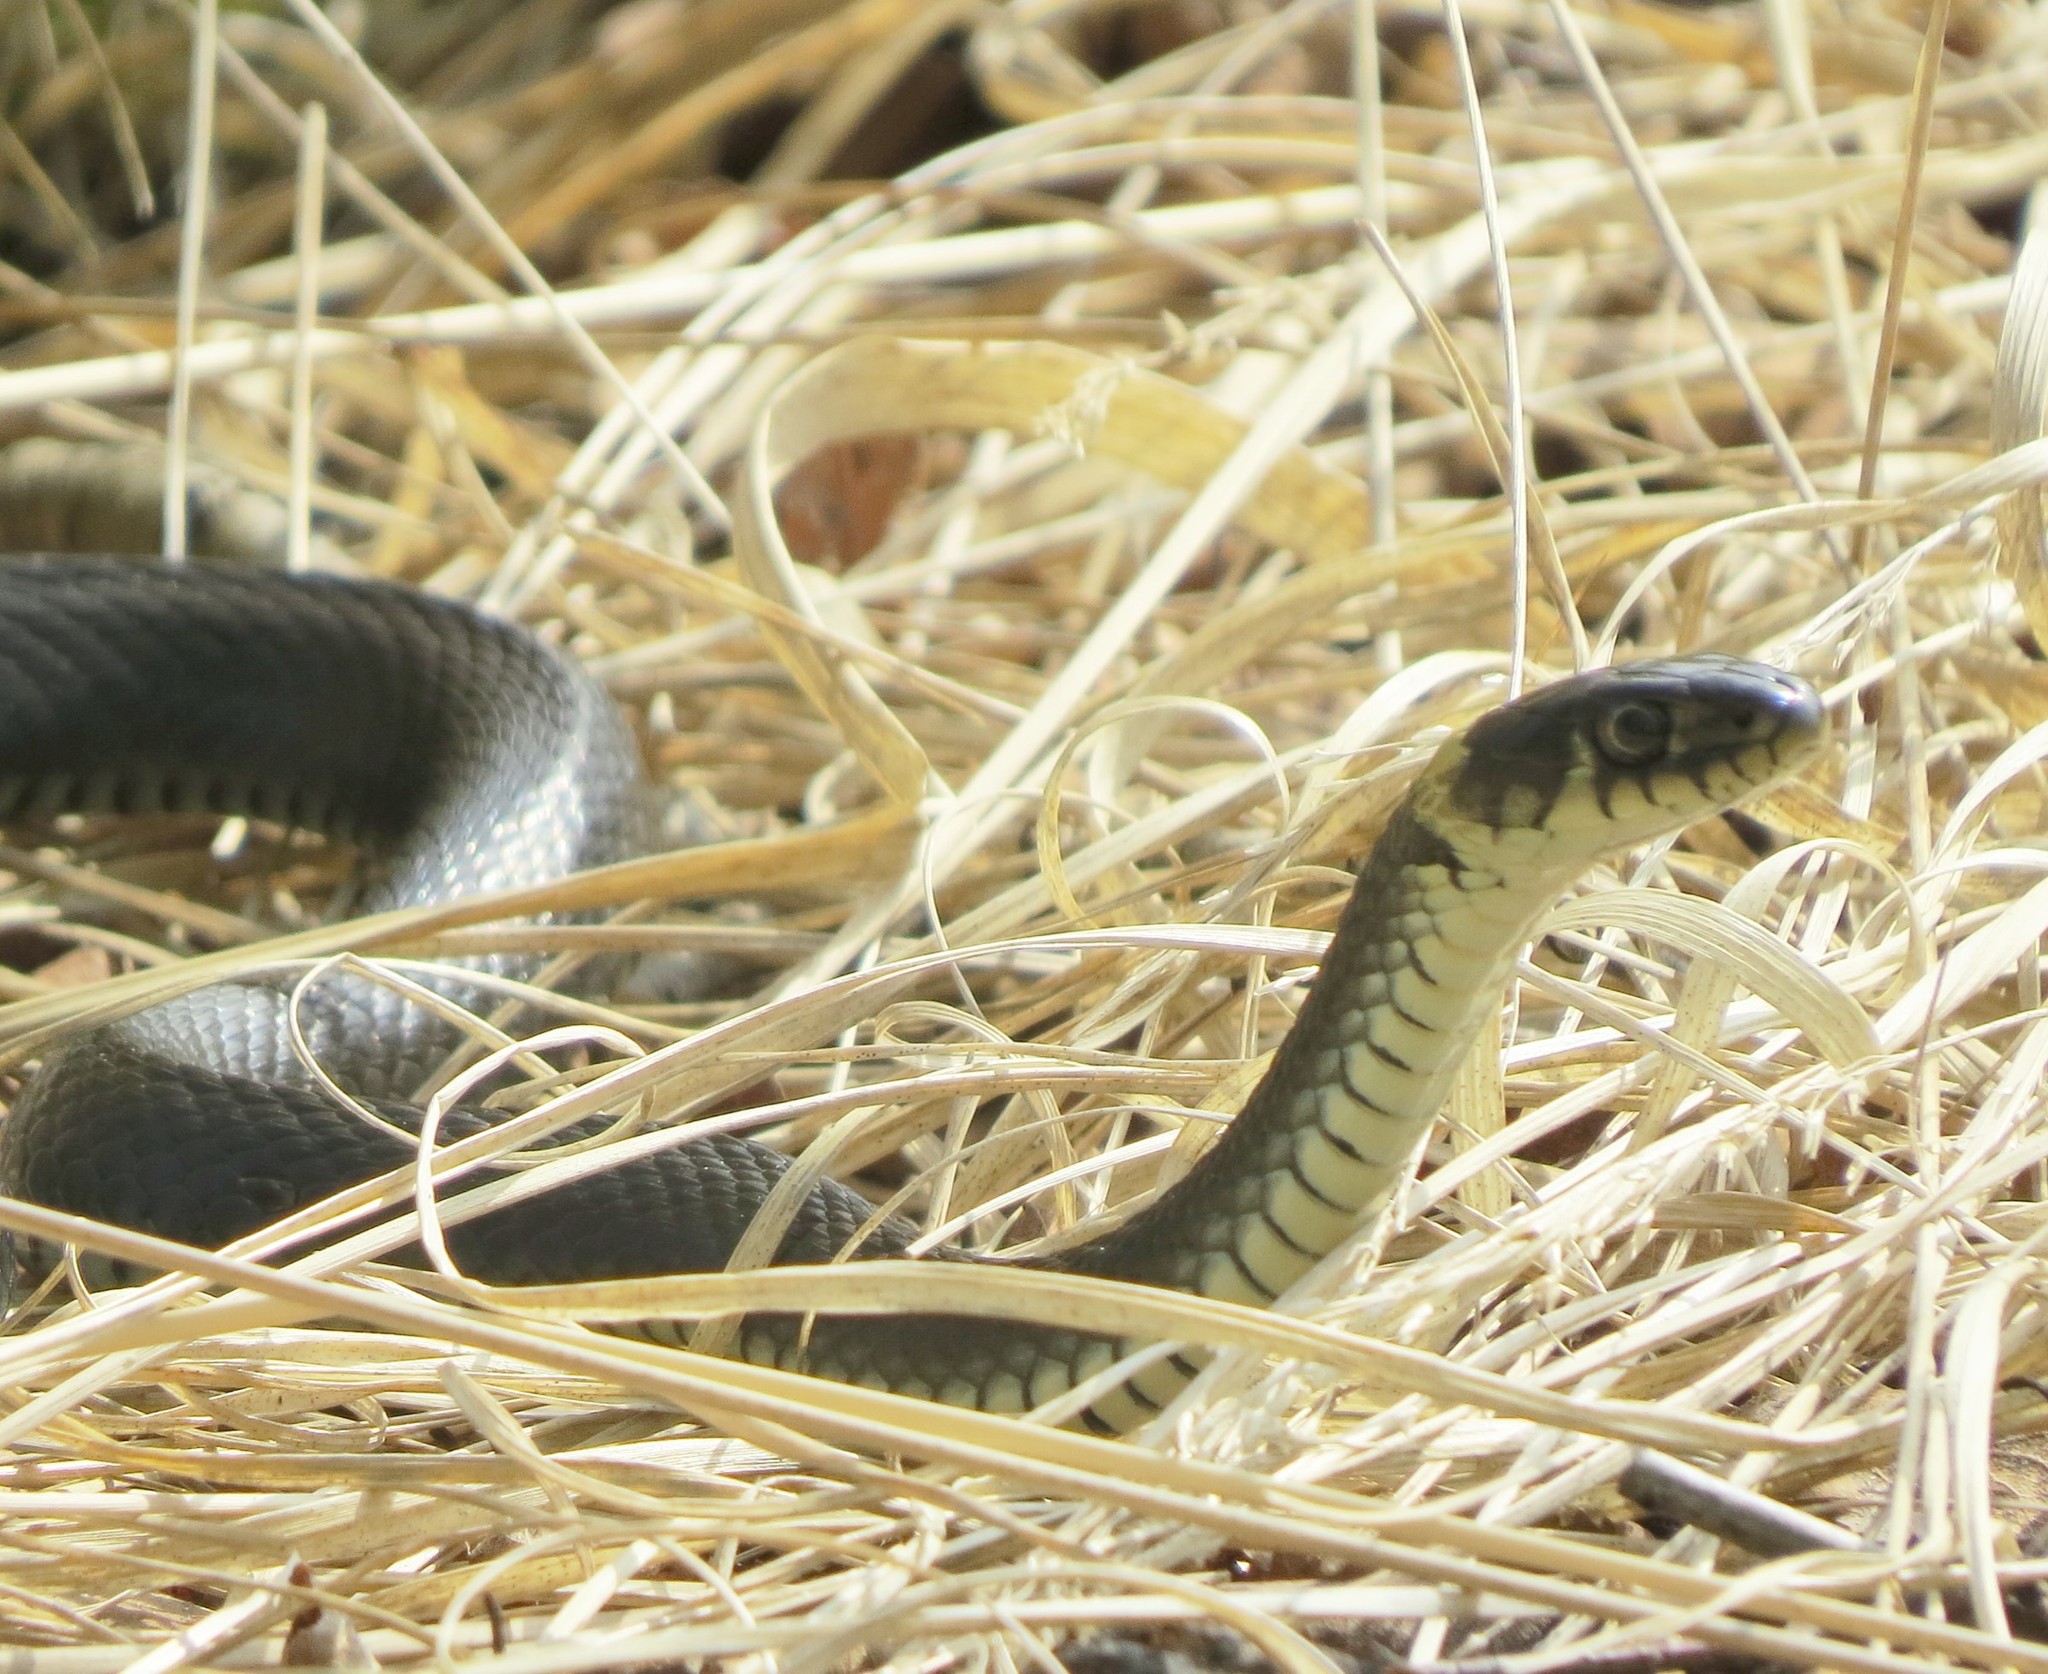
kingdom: Animalia
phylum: Chordata
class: Squamata
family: Colubridae
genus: Natrix
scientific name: Natrix natrix
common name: Grass snake
